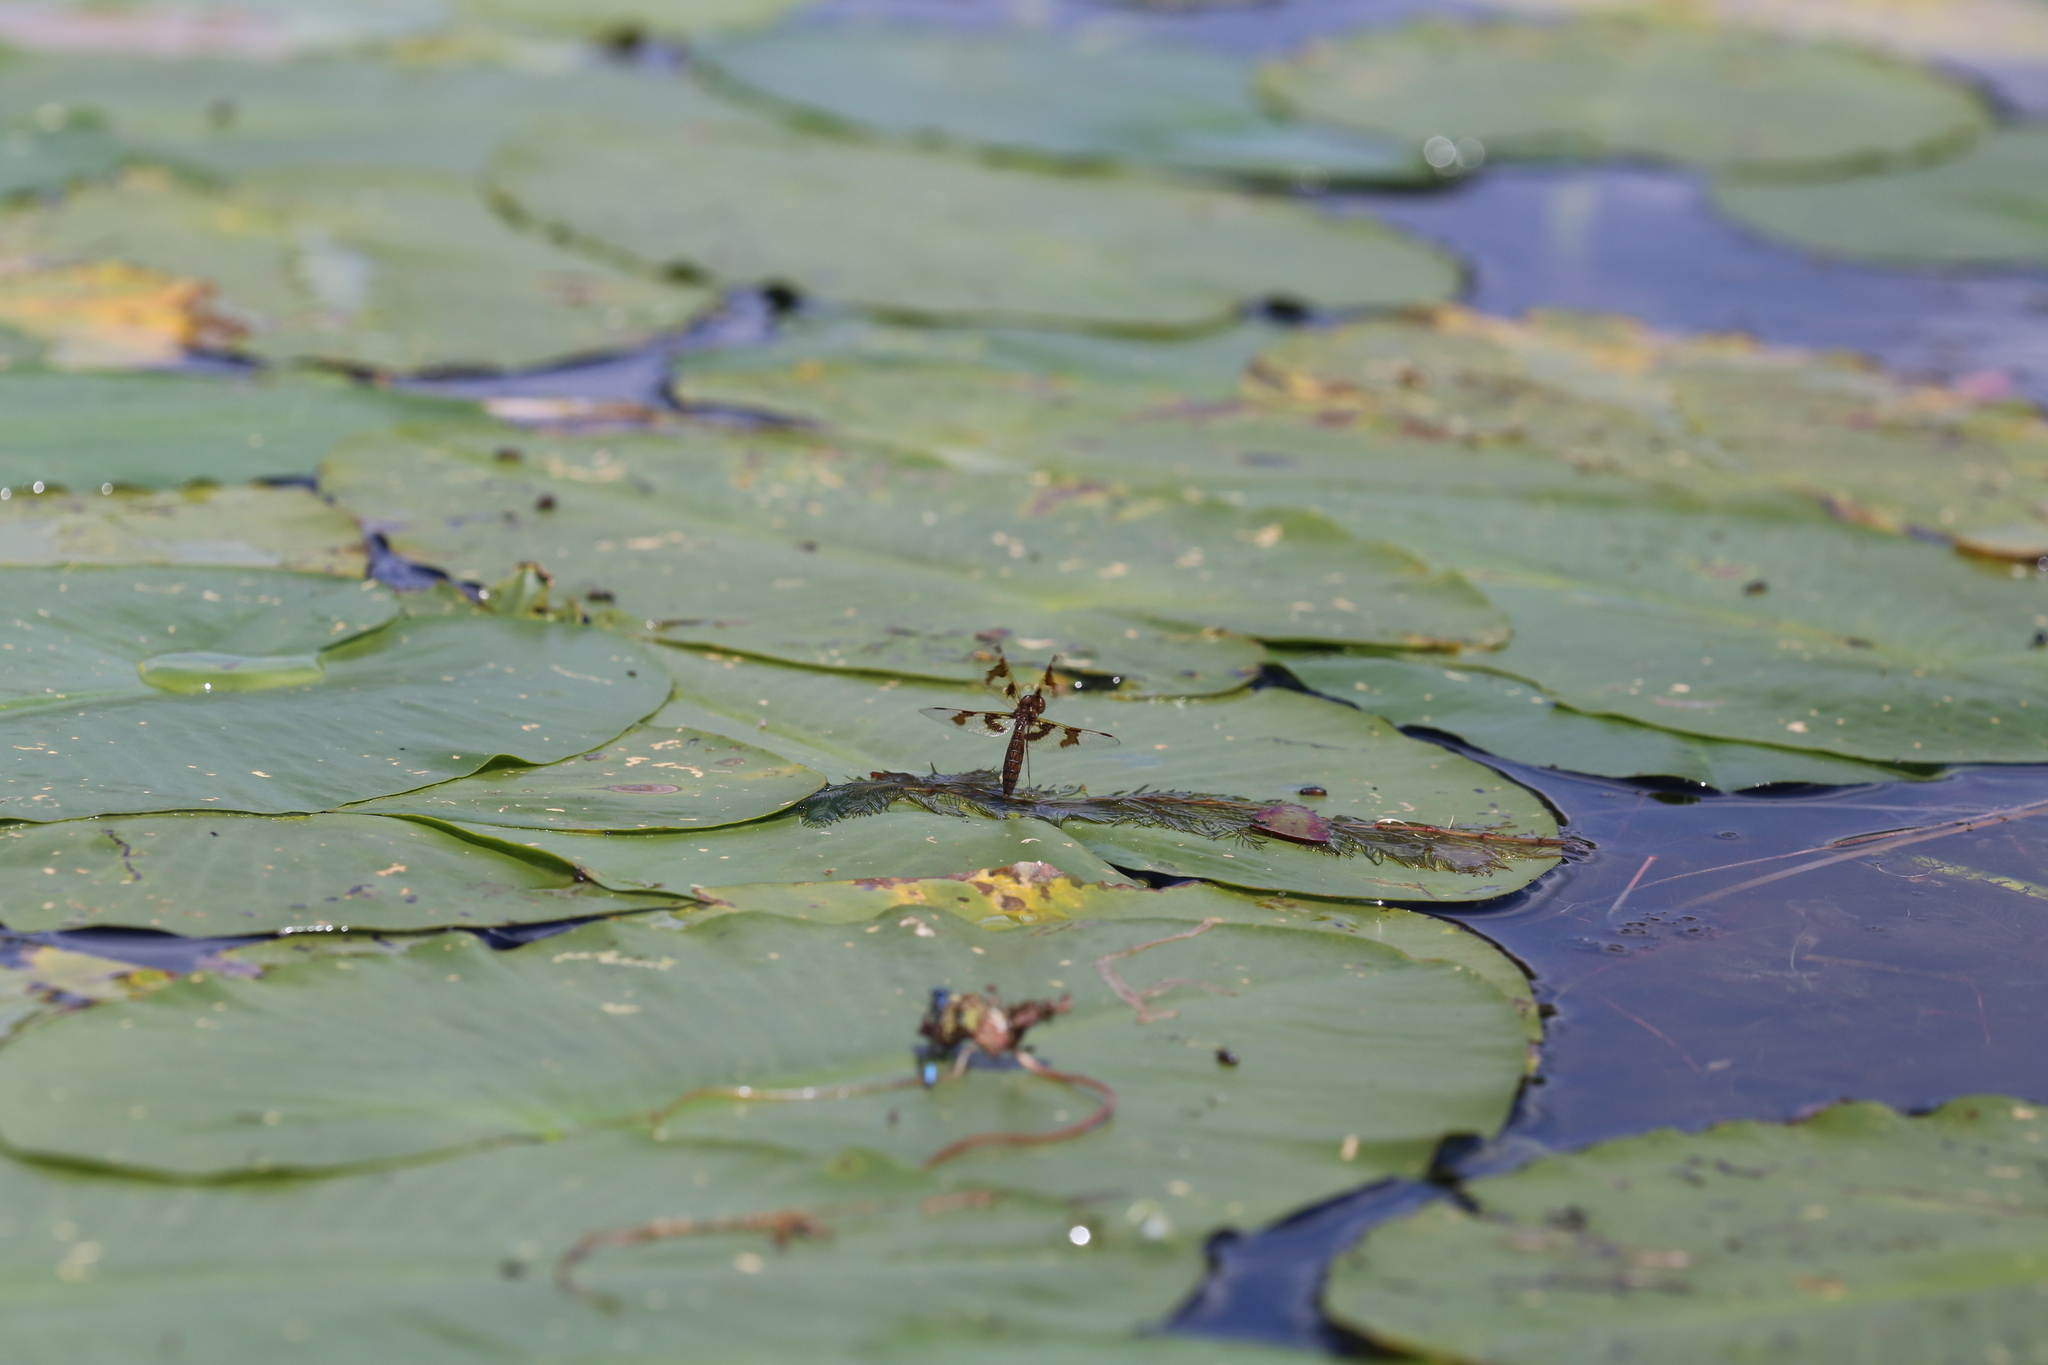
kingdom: Animalia
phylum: Arthropoda
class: Insecta
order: Odonata
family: Libellulidae
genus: Perithemis
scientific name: Perithemis tenera
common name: Eastern amberwing
